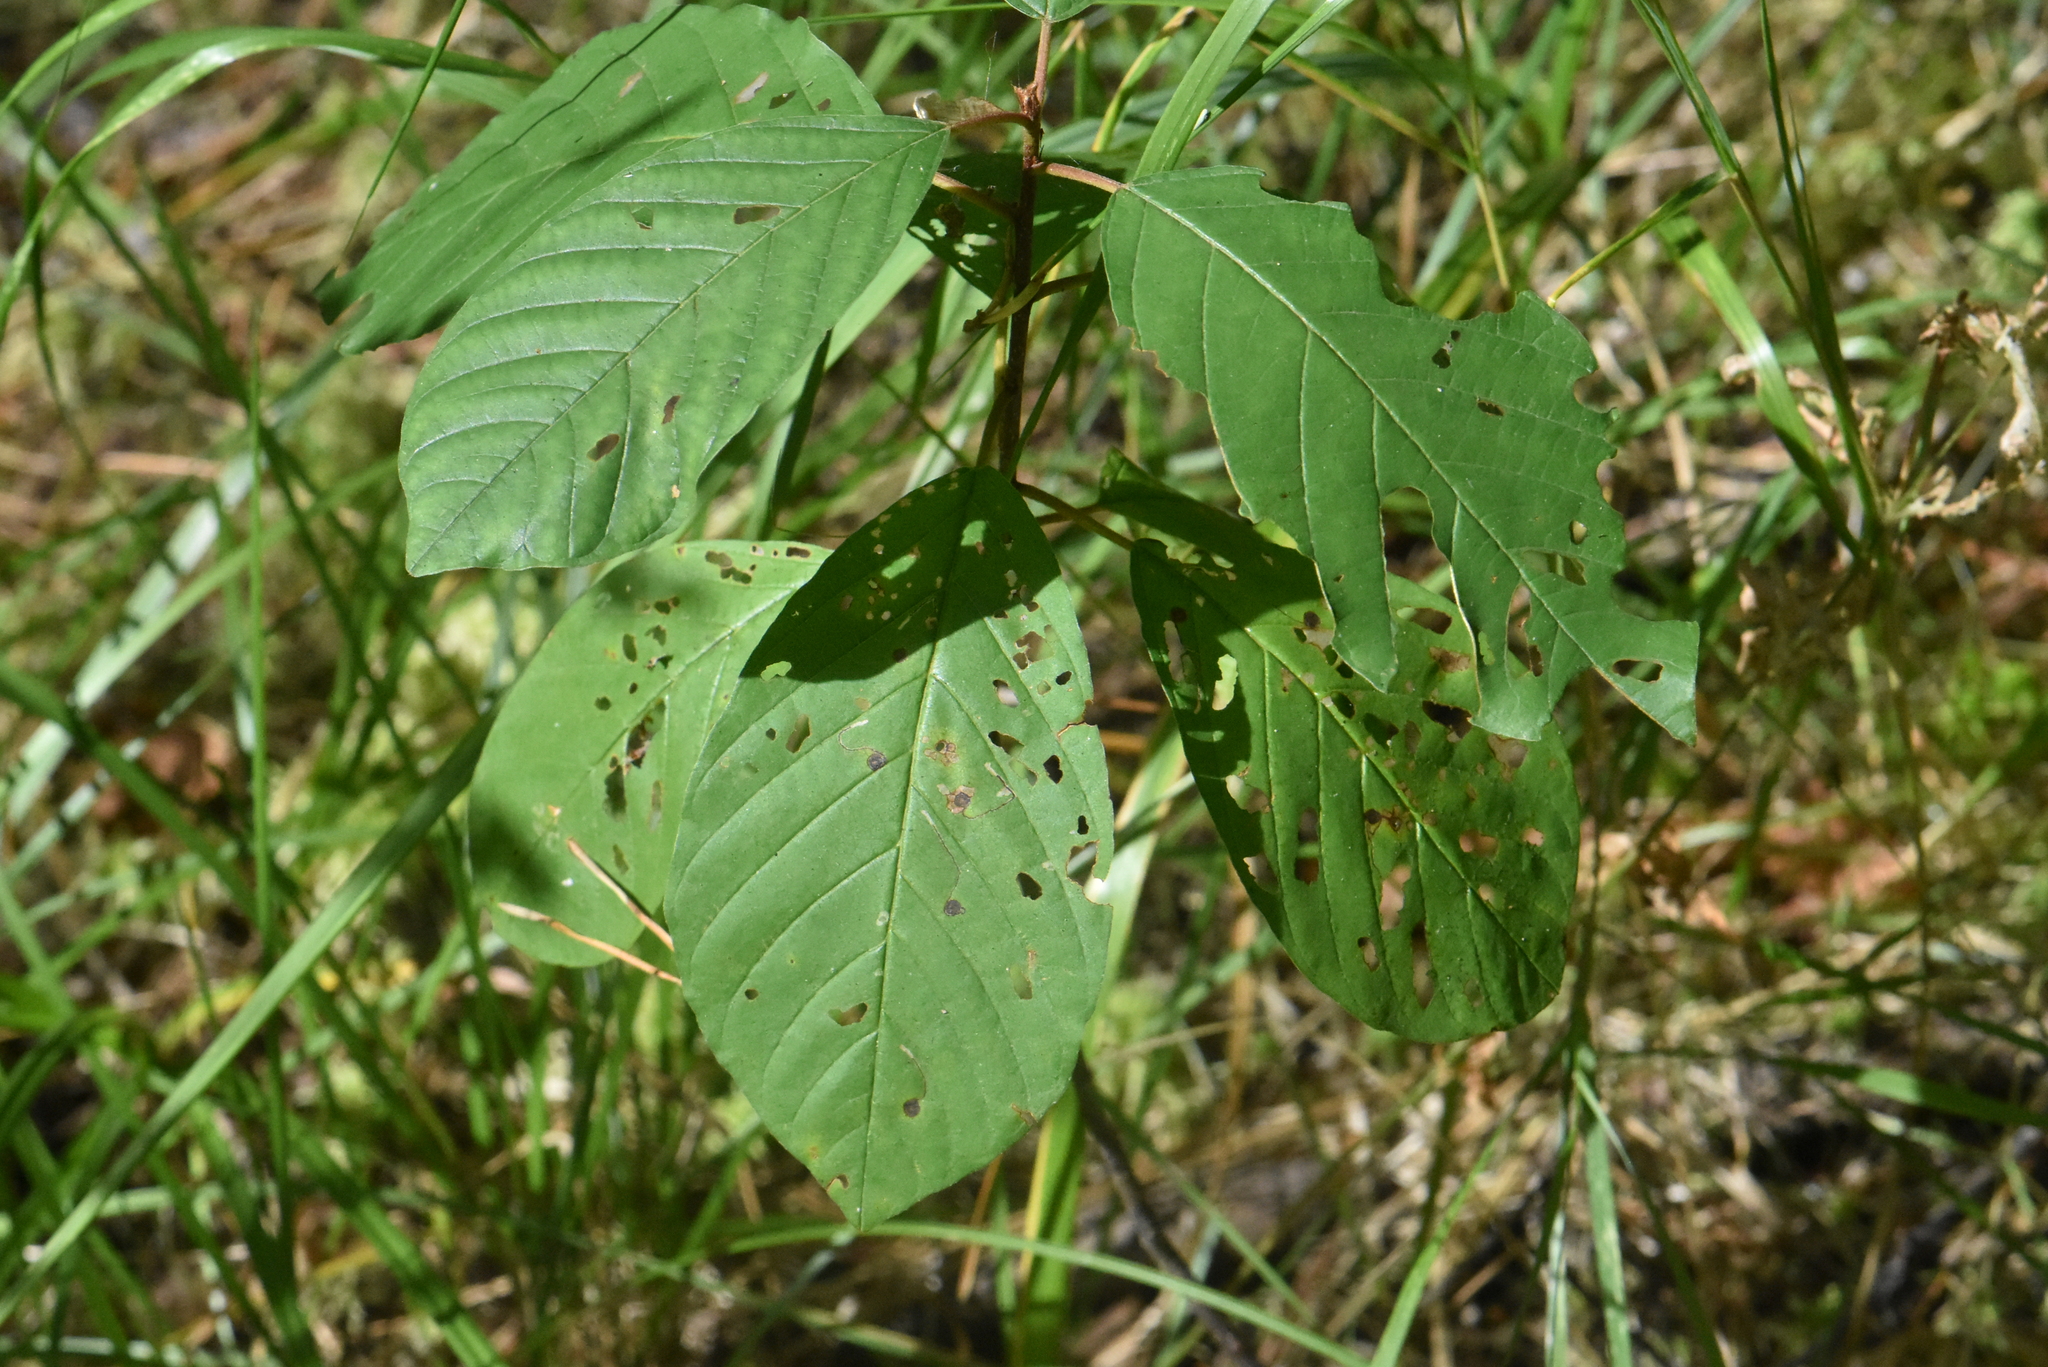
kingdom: Plantae
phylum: Tracheophyta
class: Magnoliopsida
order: Rosales
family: Rhamnaceae
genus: Frangula
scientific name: Frangula alnus
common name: Alder buckthorn
